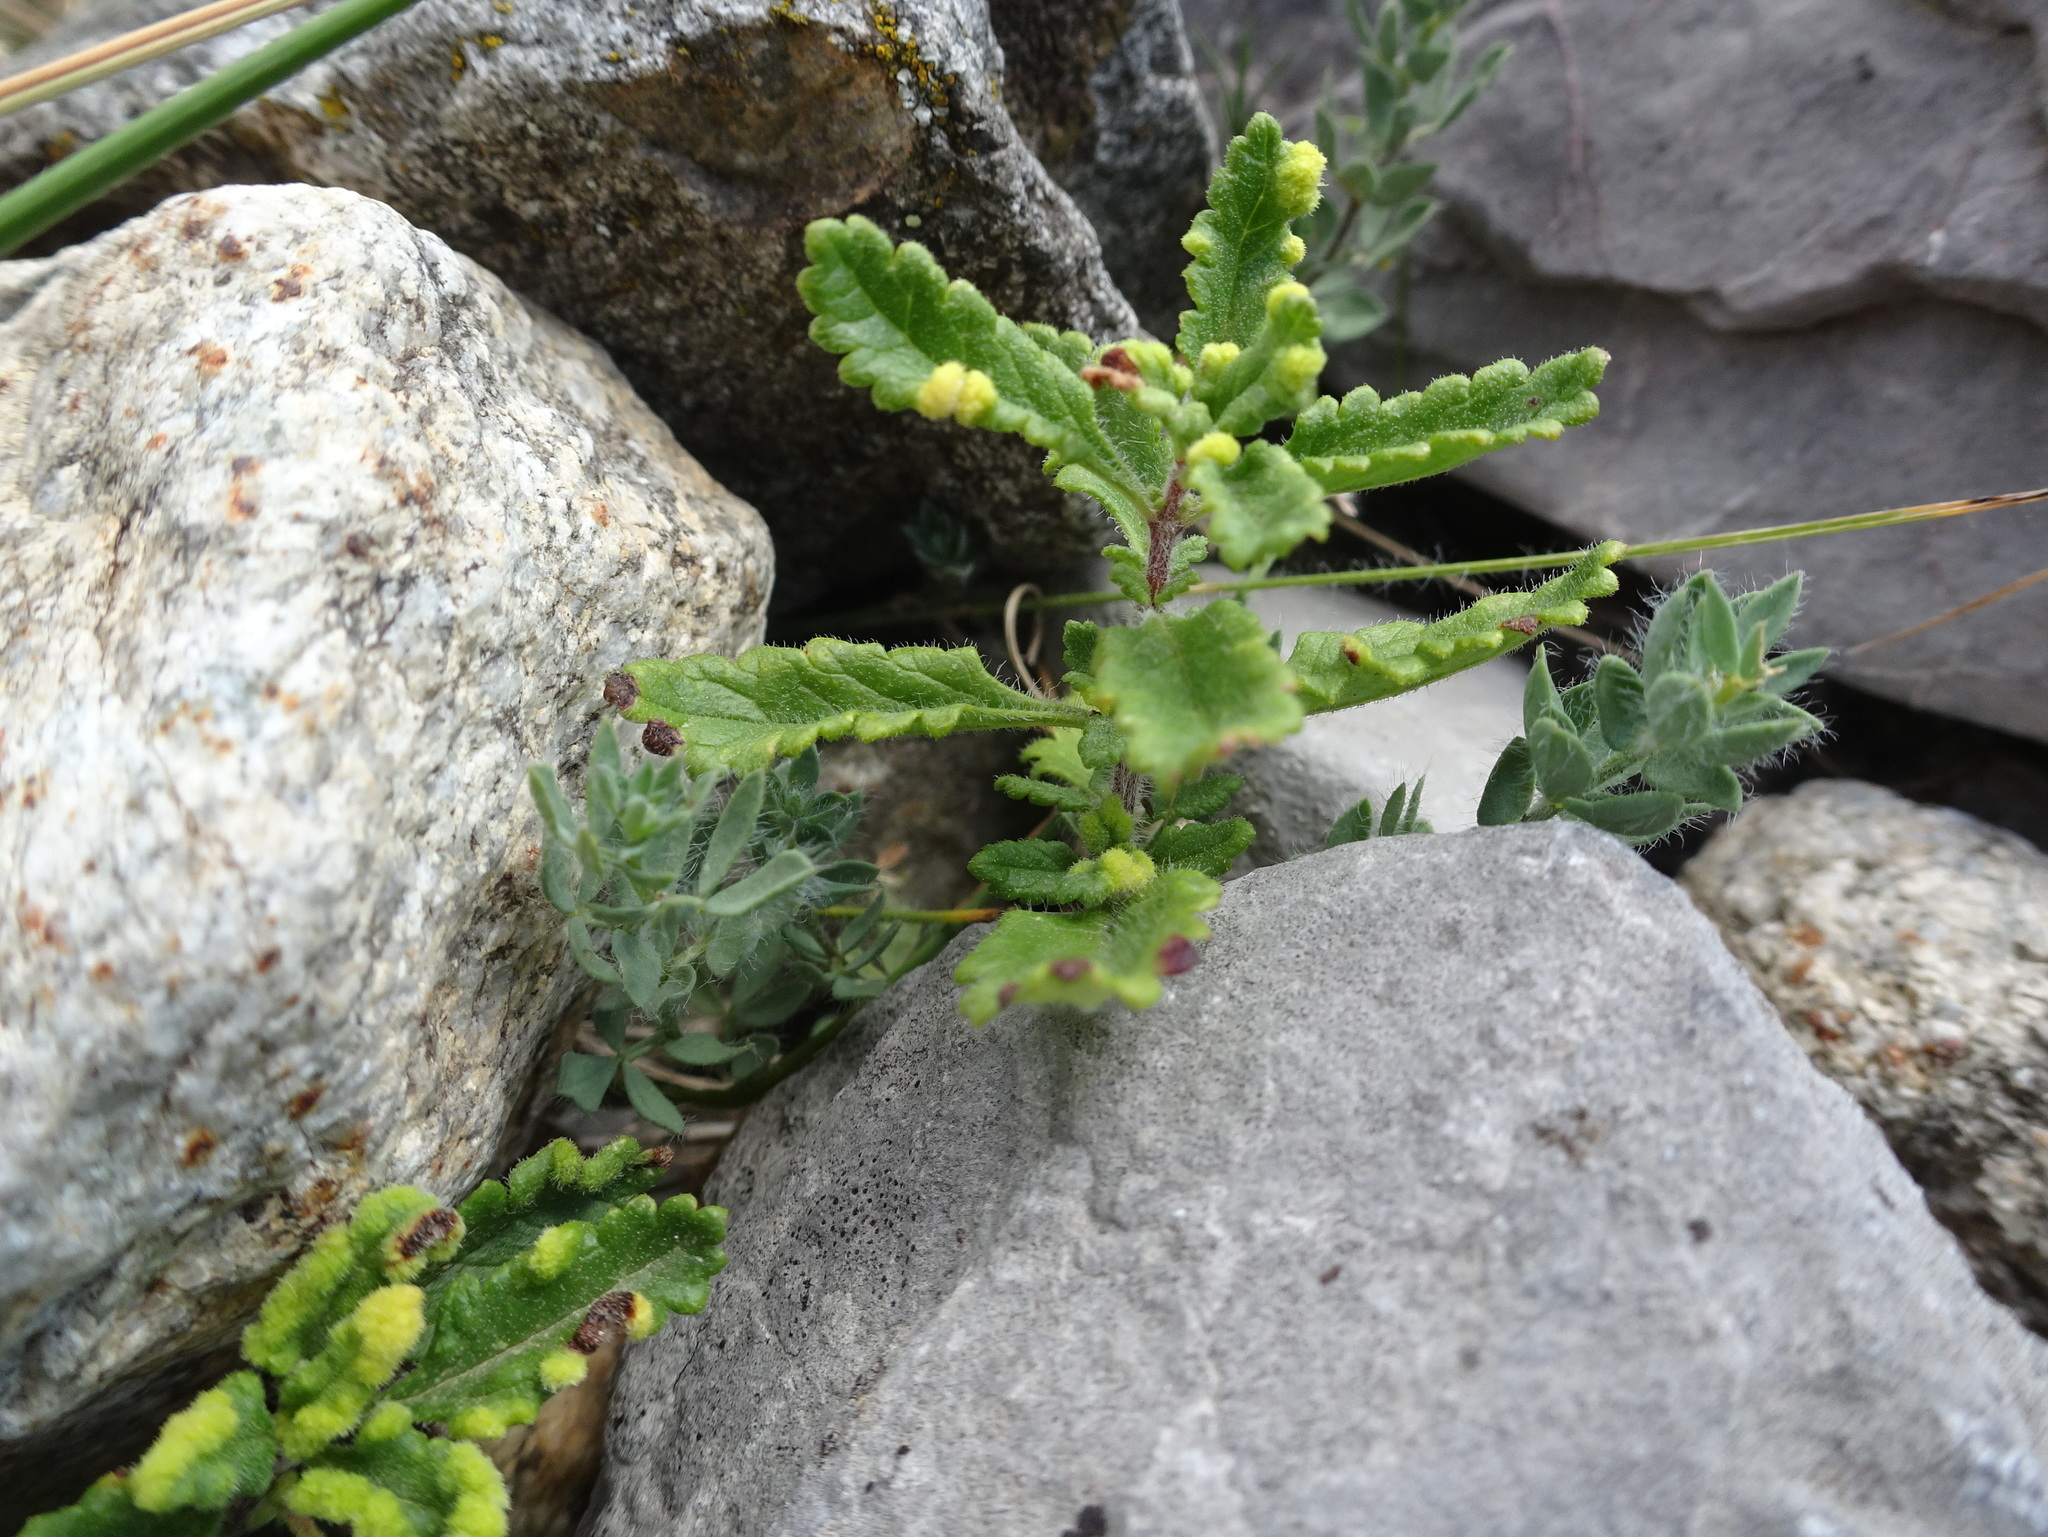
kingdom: Animalia
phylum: Arthropoda
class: Arachnida
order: Trombidiformes
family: Eriophyidae
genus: Aculus
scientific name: Aculus teucrii
